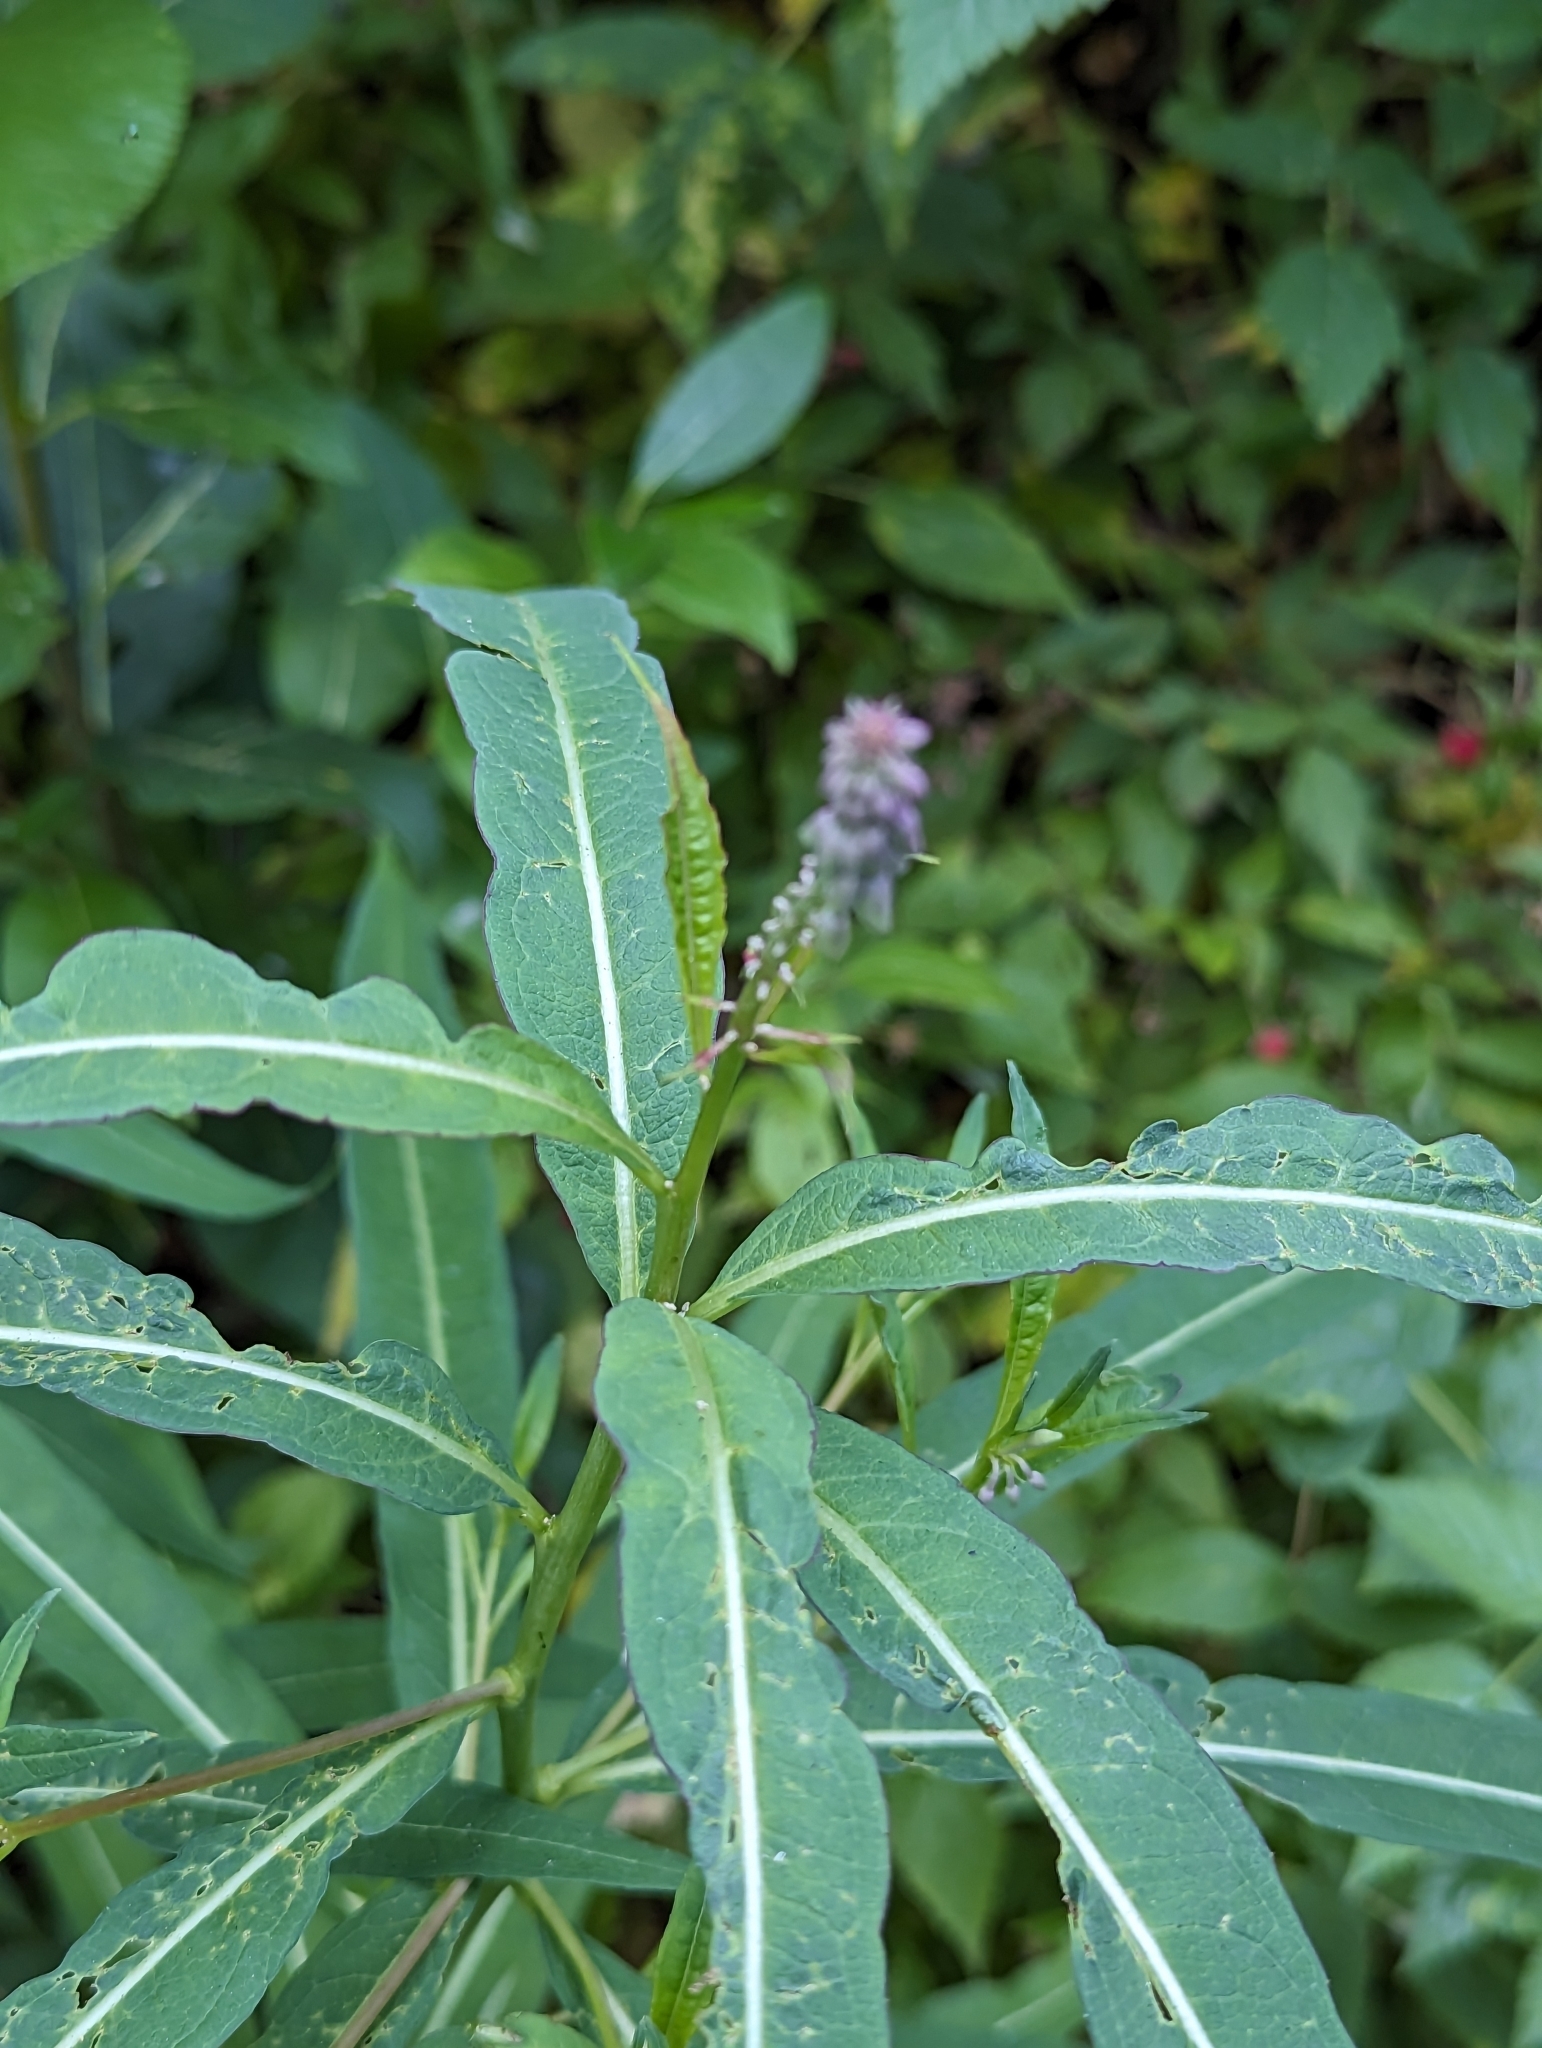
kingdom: Plantae
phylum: Tracheophyta
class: Magnoliopsida
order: Myrtales
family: Onagraceae
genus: Chamaenerion
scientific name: Chamaenerion angustifolium
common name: Fireweed
